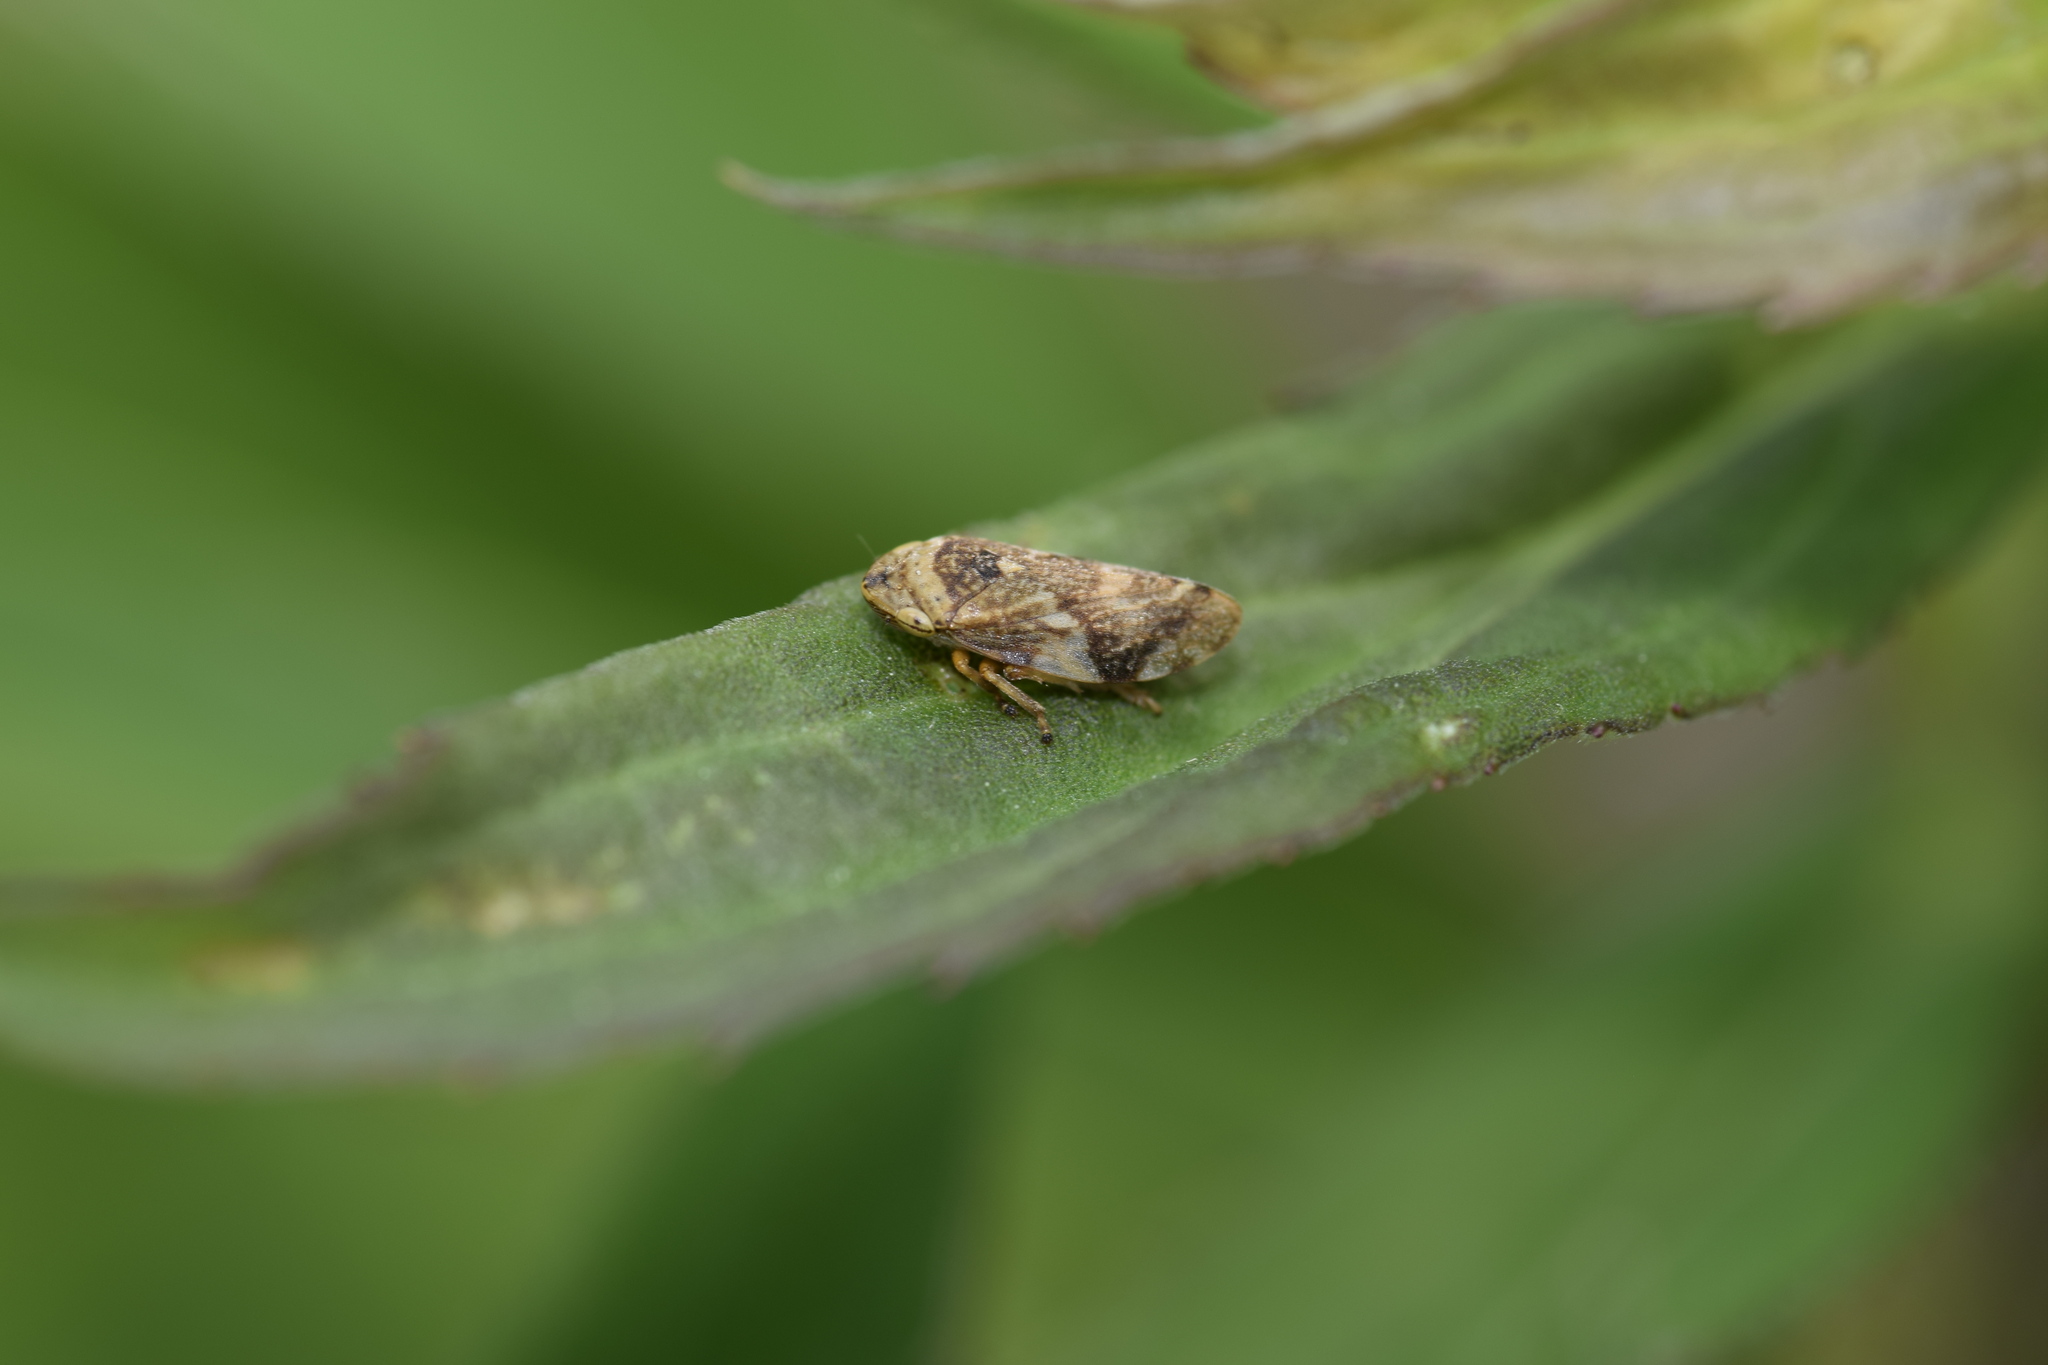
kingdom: Animalia
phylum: Arthropoda
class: Insecta
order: Hemiptera
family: Aphrophoridae
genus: Philaenus
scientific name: Philaenus spumarius
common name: Meadow spittlebug
